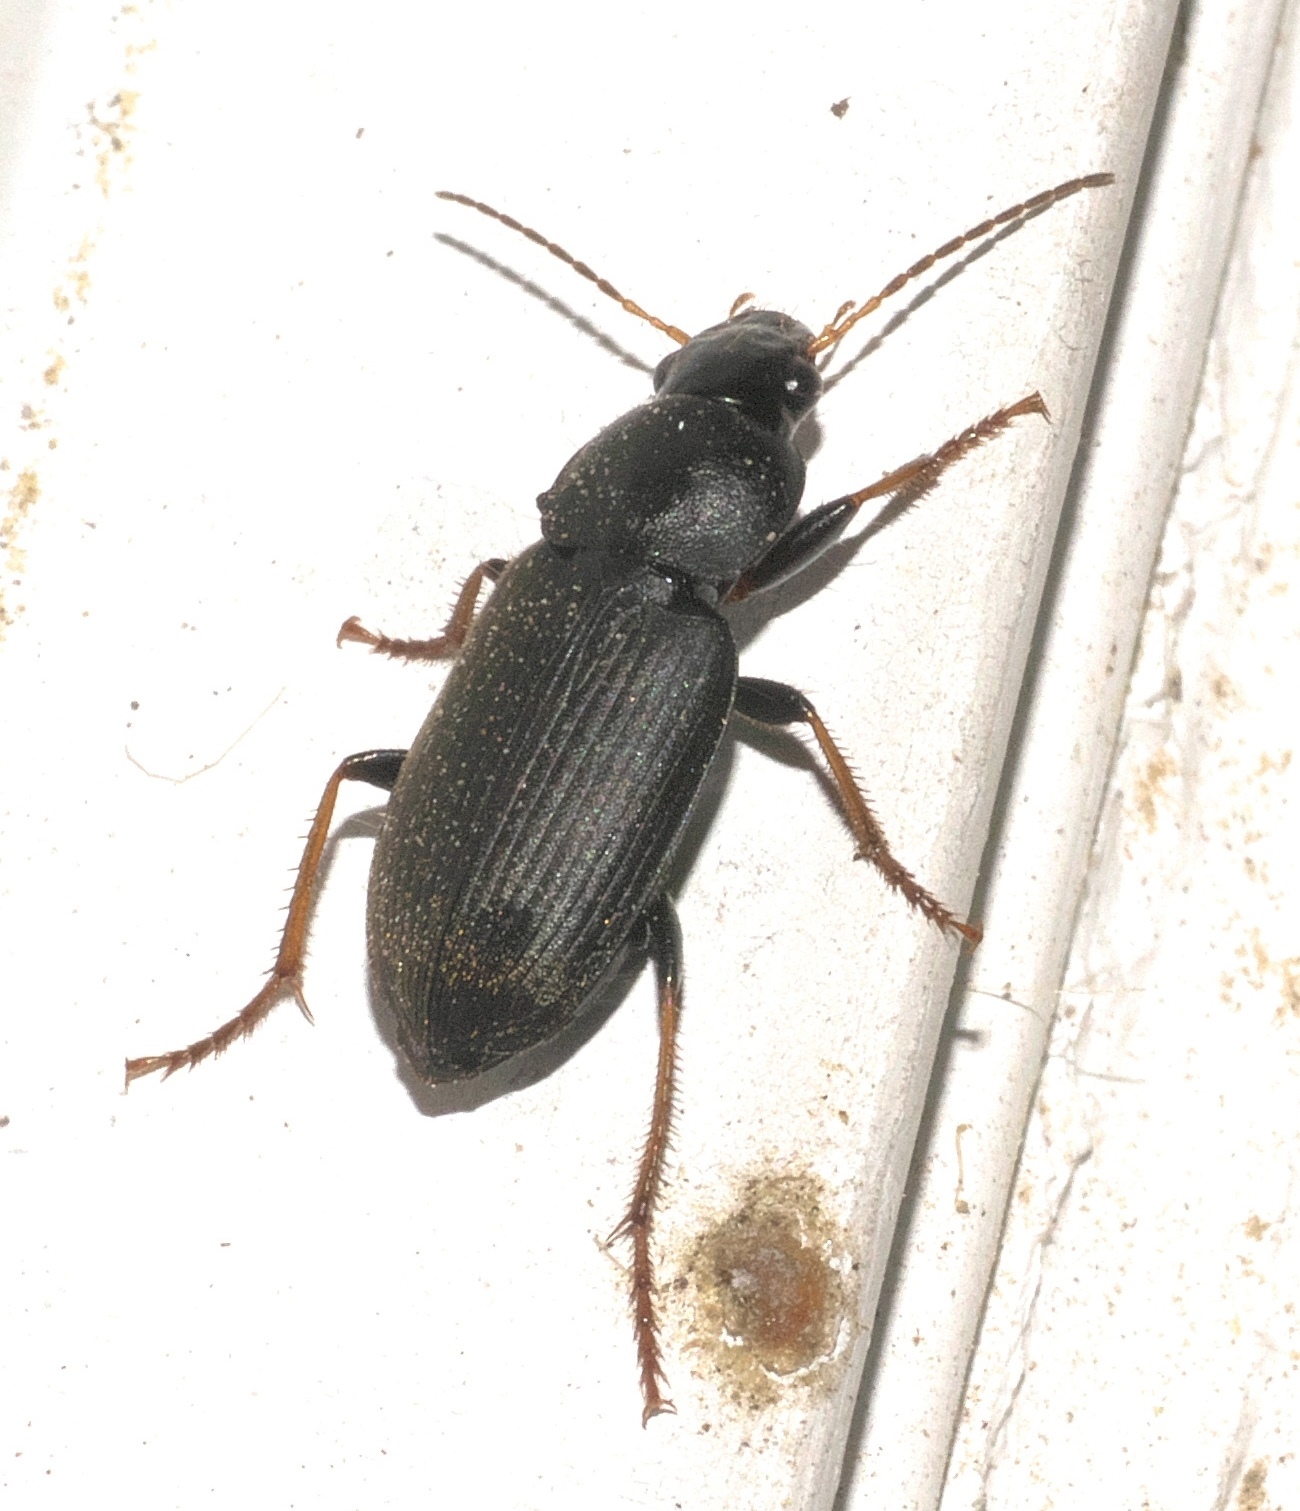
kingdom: Animalia
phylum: Arthropoda
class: Insecta
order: Coleoptera
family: Carabidae
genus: Amphasia
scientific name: Amphasia sericea
